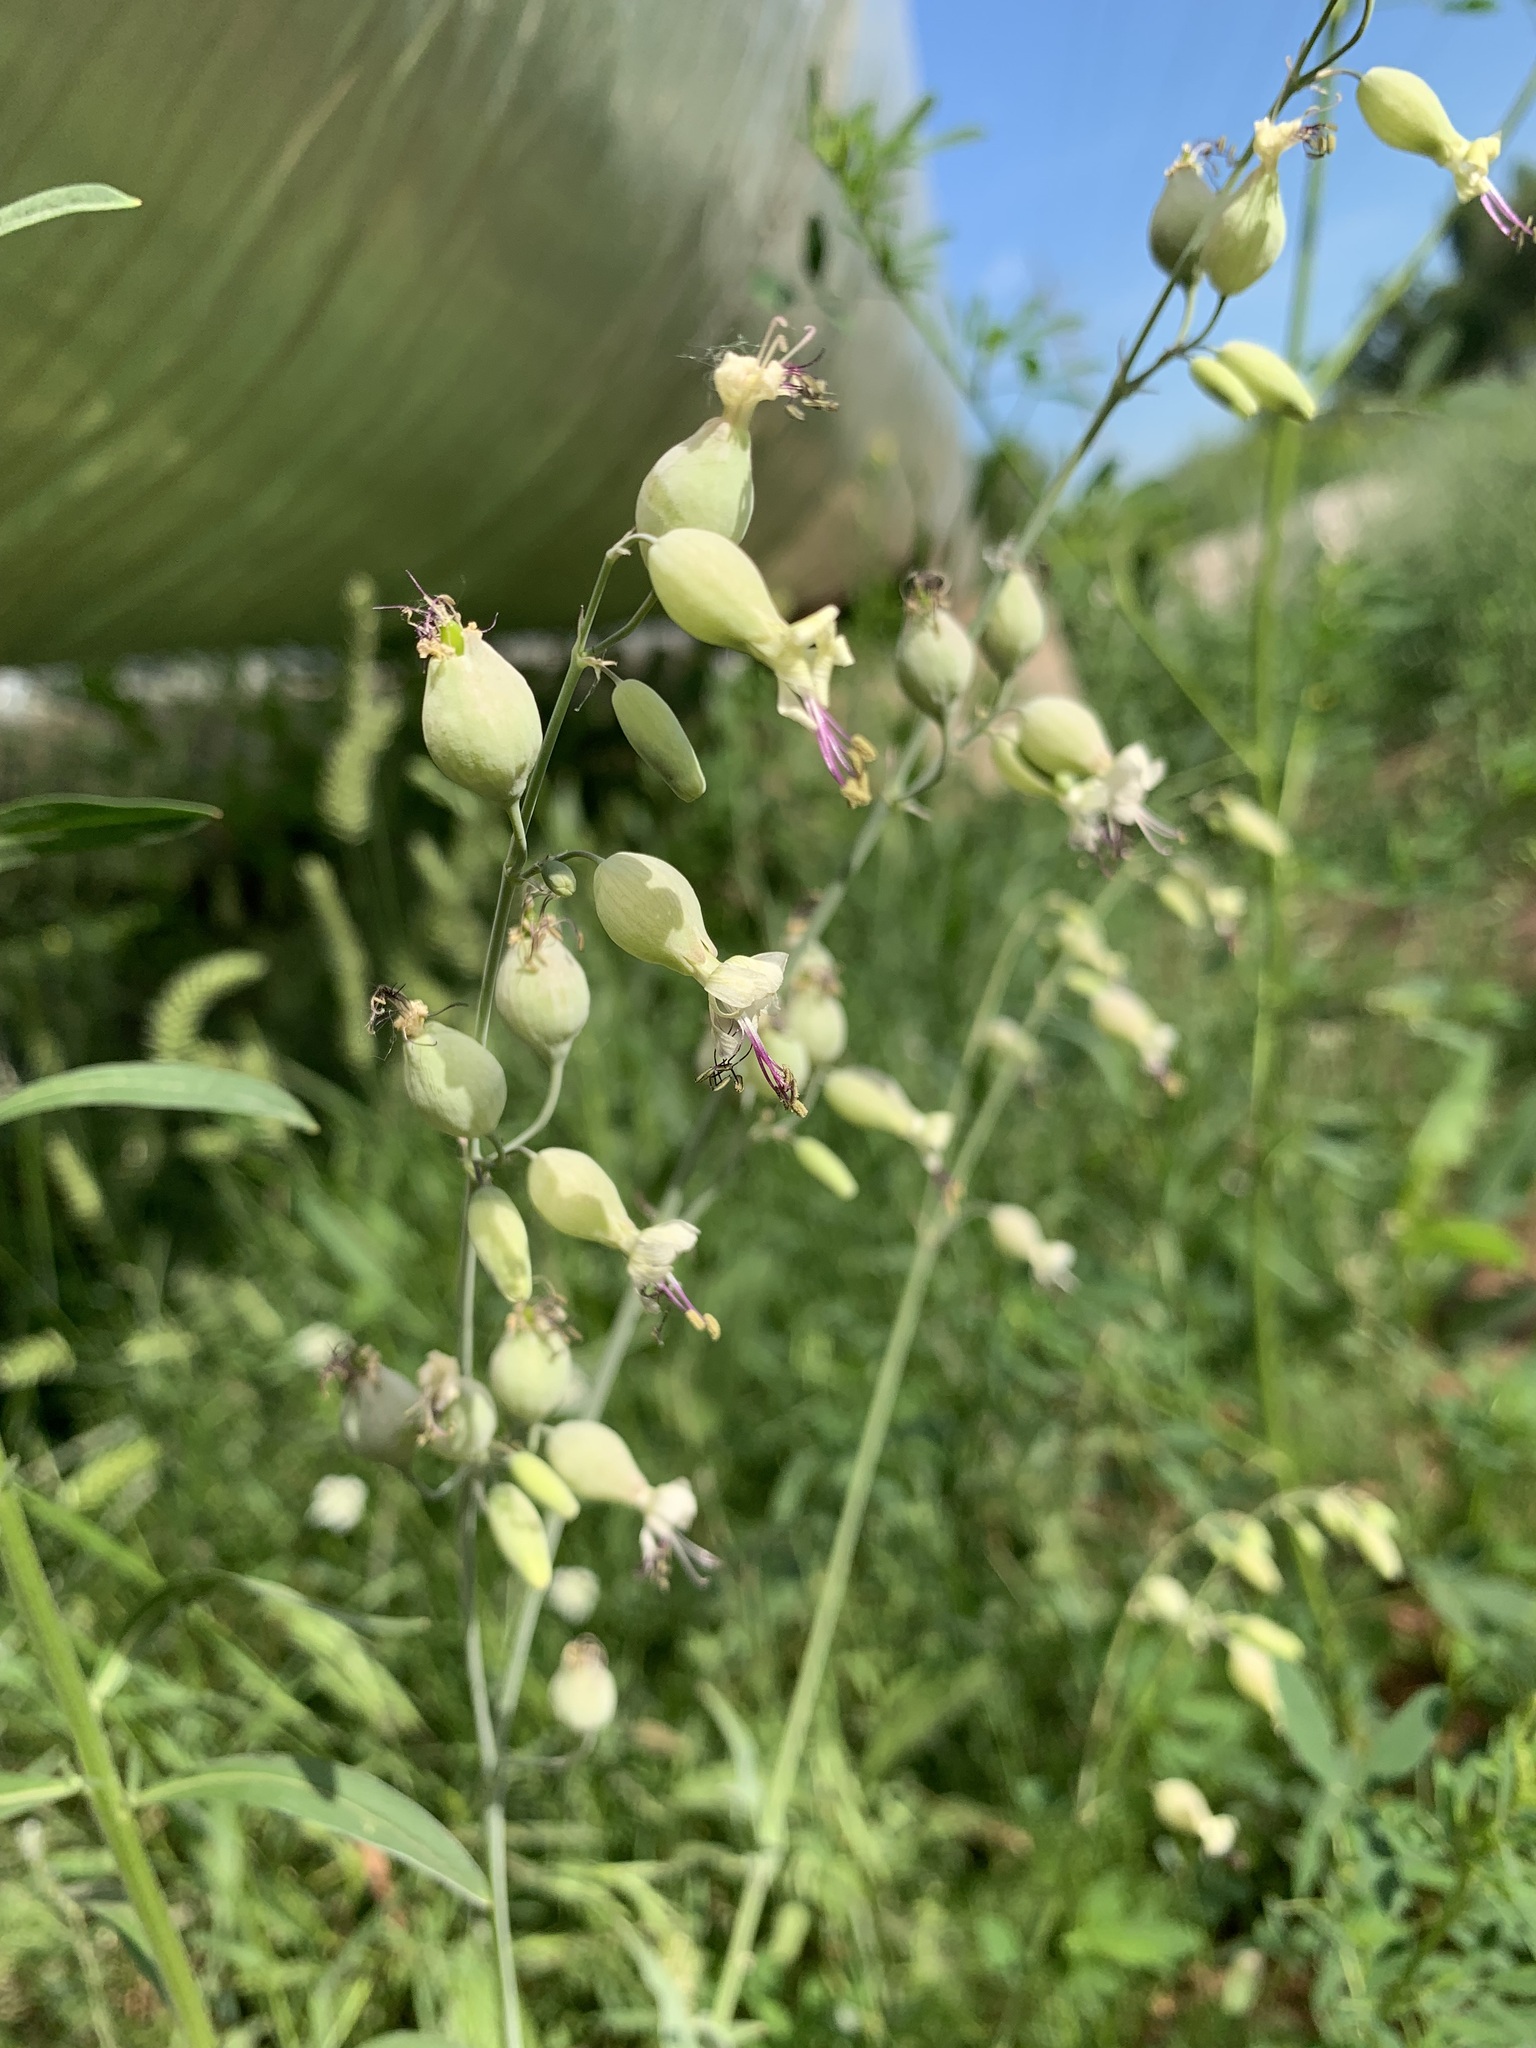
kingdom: Plantae
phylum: Tracheophyta
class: Magnoliopsida
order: Caryophyllales
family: Caryophyllaceae
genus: Silene
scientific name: Silene csereii
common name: Balkan catchfly
